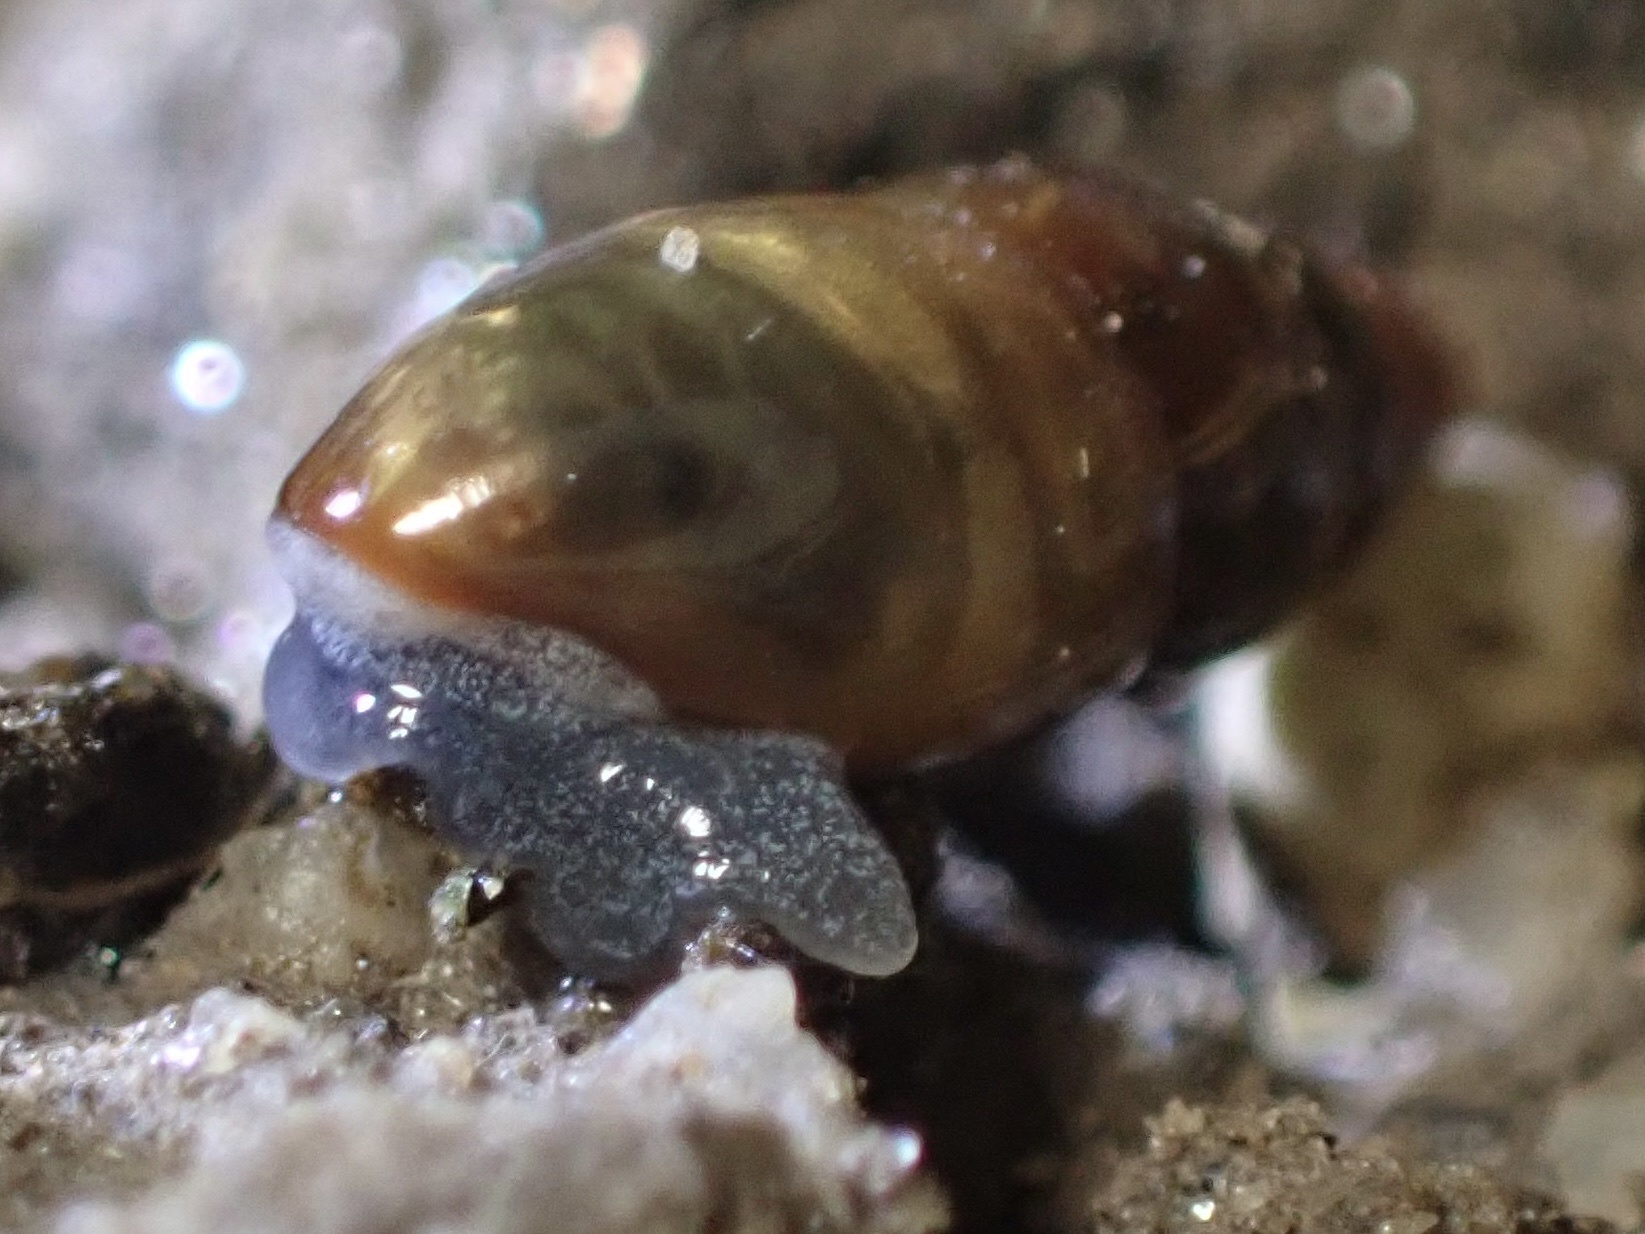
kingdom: Animalia
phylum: Mollusca
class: Gastropoda
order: Stylommatophora
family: Cochlicopidae
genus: Cochlicopa
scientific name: Cochlicopa lubrica
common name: Glossy pillar snail
